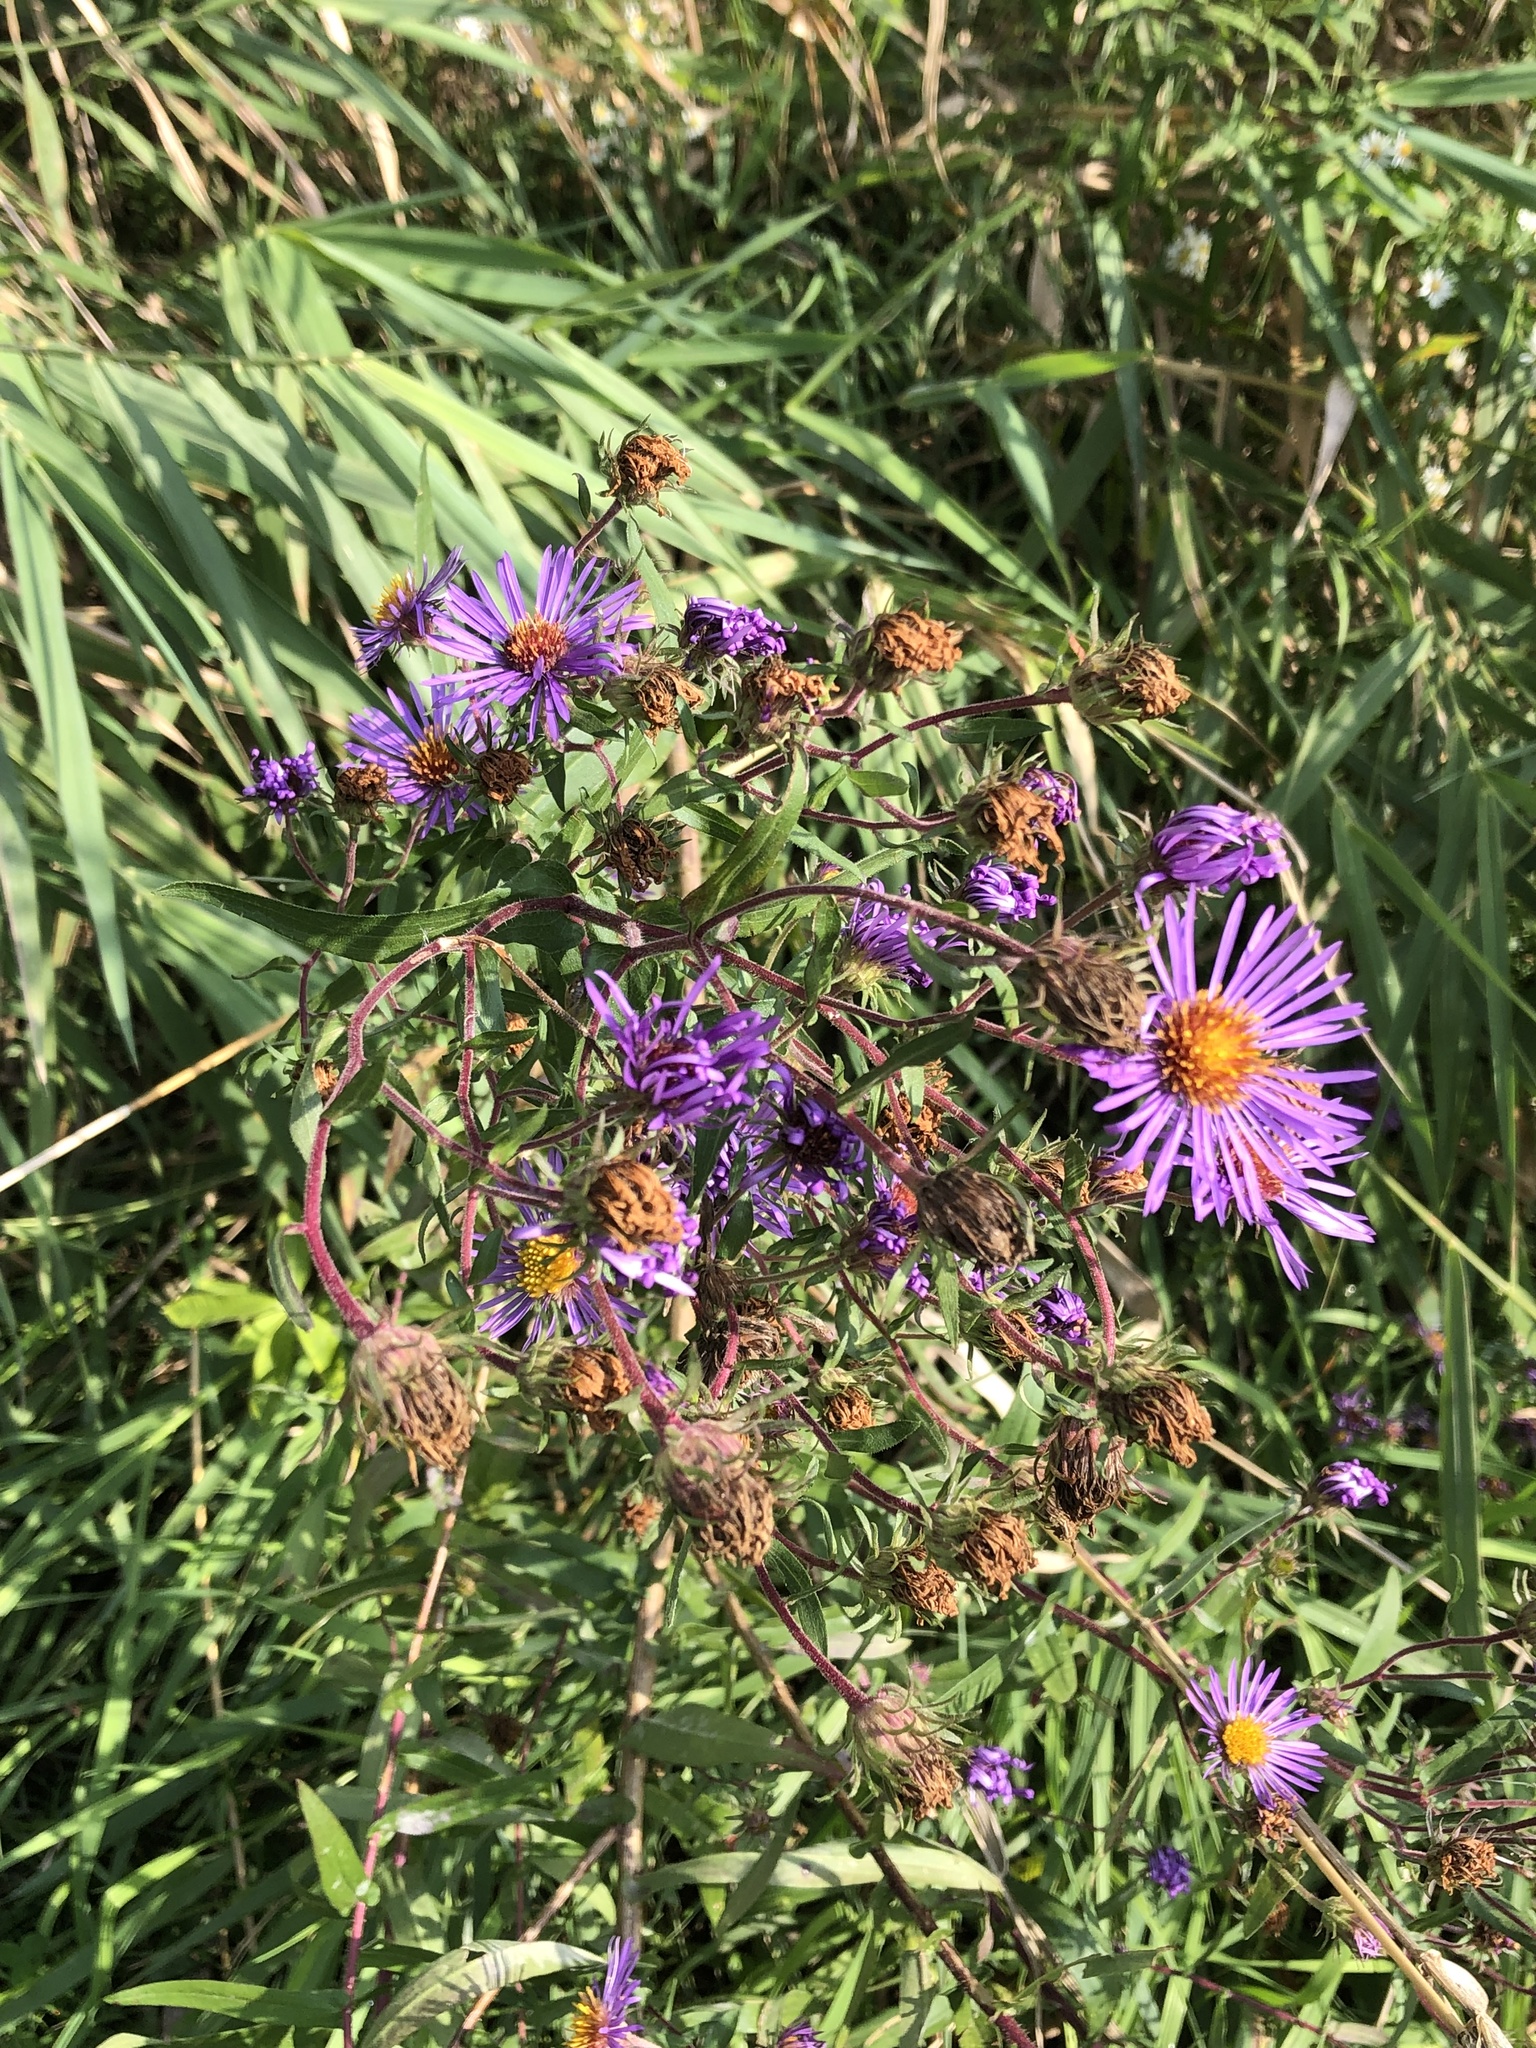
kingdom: Plantae
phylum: Tracheophyta
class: Magnoliopsida
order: Asterales
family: Asteraceae
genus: Symphyotrichum
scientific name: Symphyotrichum novae-angliae
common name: Michaelmas daisy
